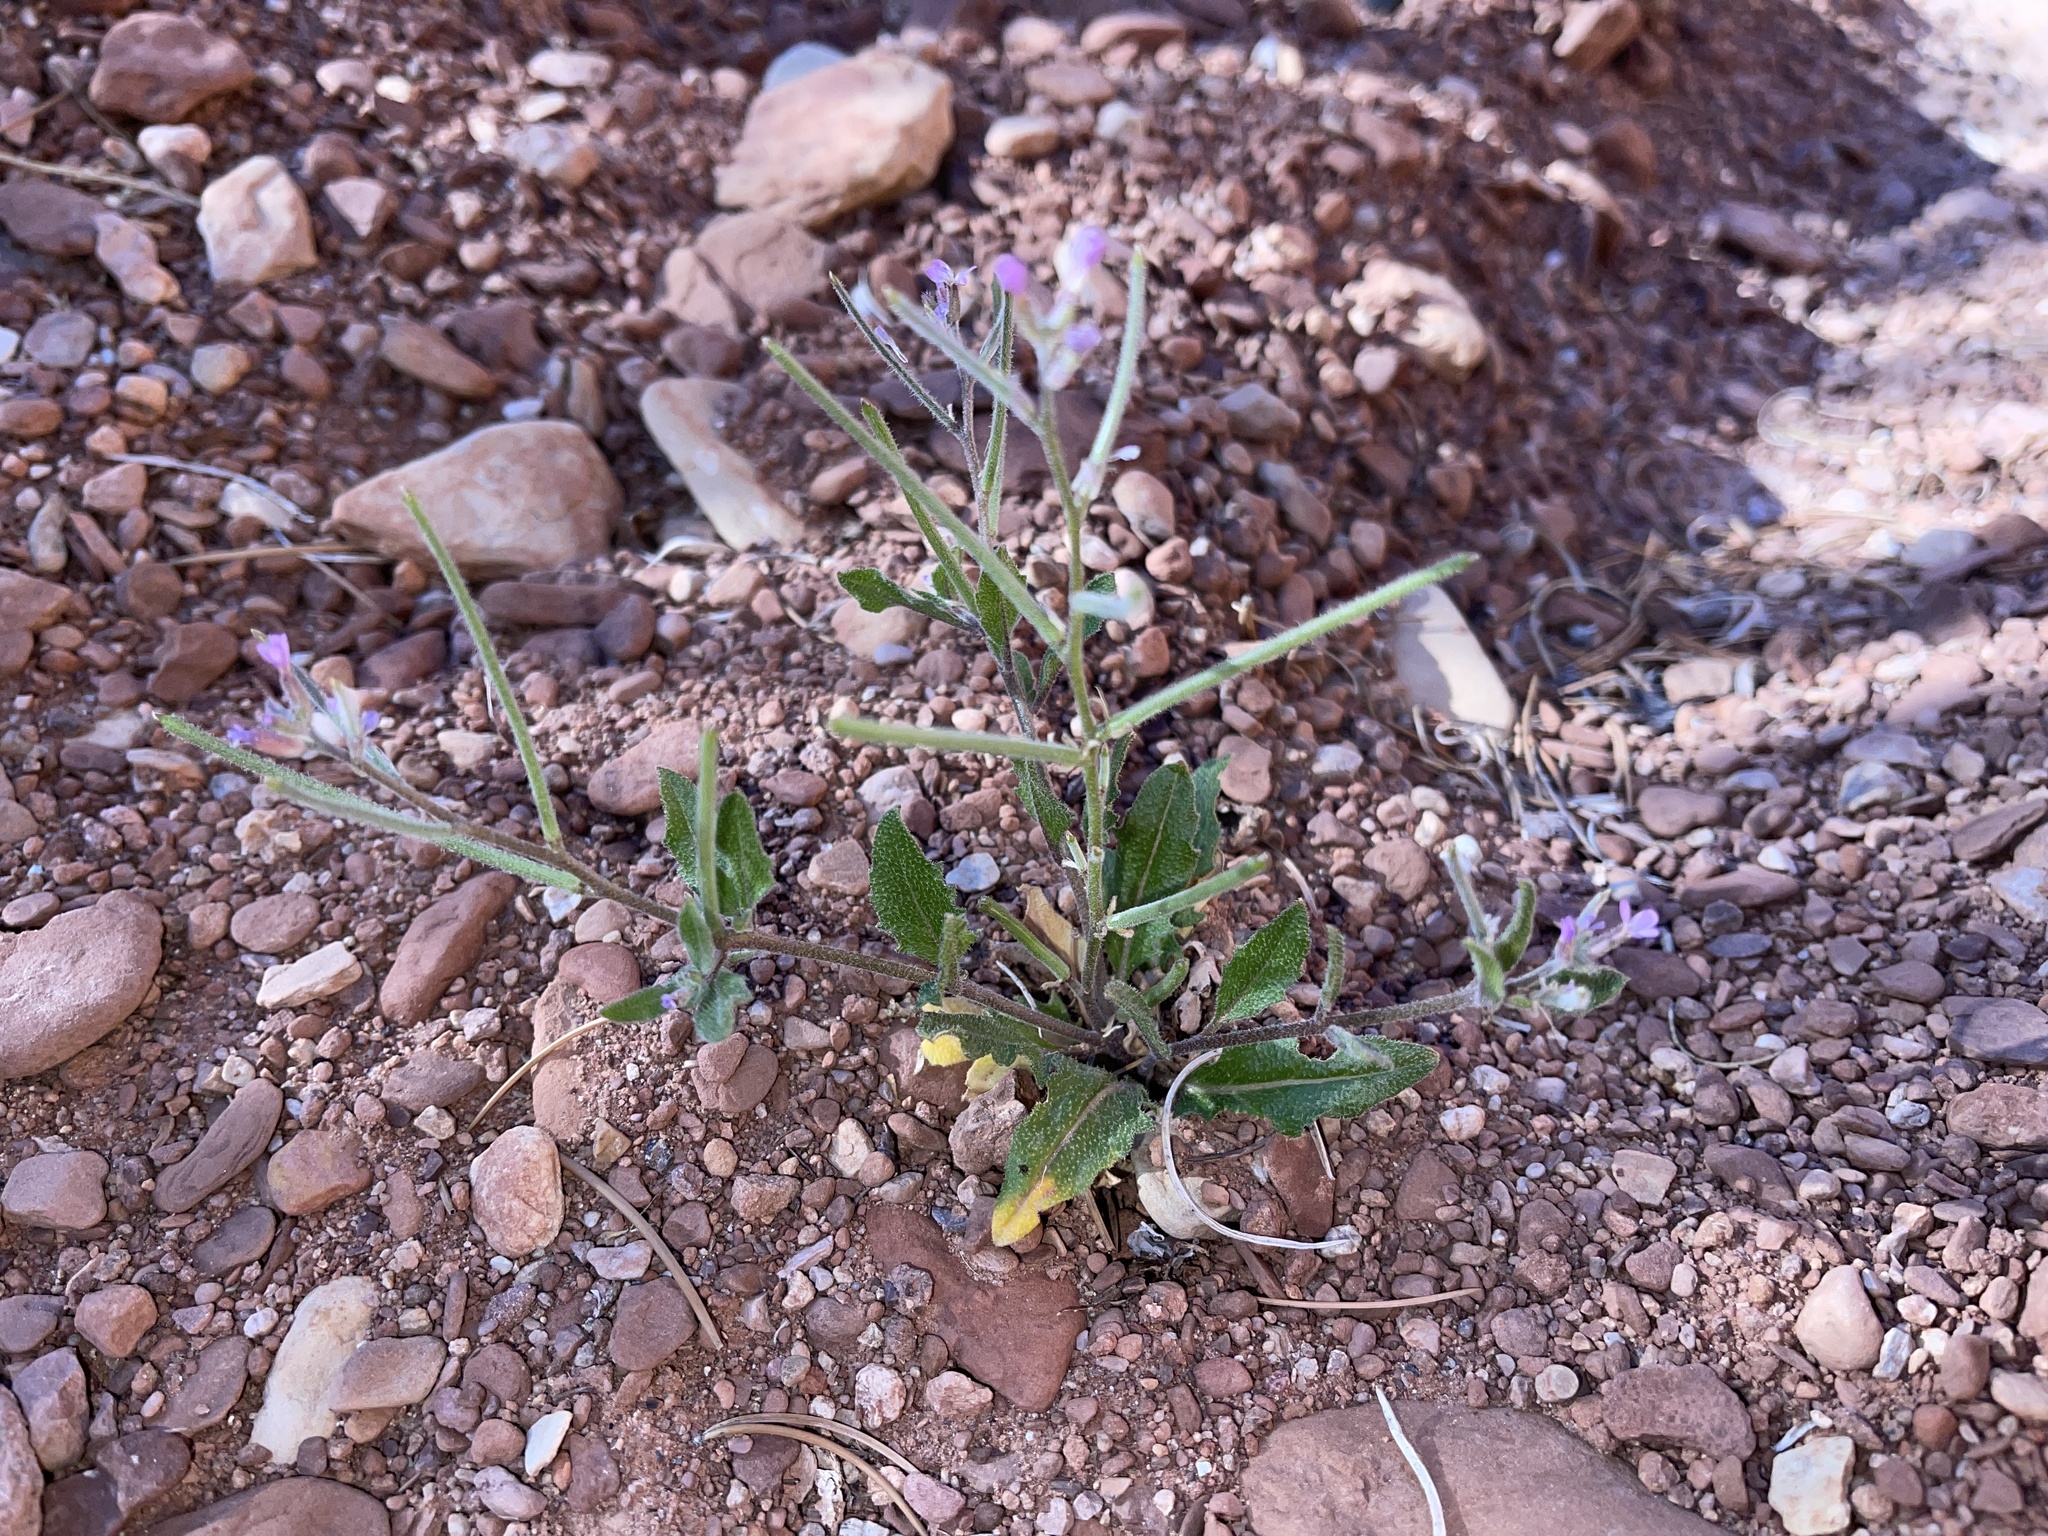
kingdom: Plantae
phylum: Tracheophyta
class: Magnoliopsida
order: Brassicales
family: Brassicaceae
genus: Strigosella
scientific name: Strigosella africana
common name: African mustard
